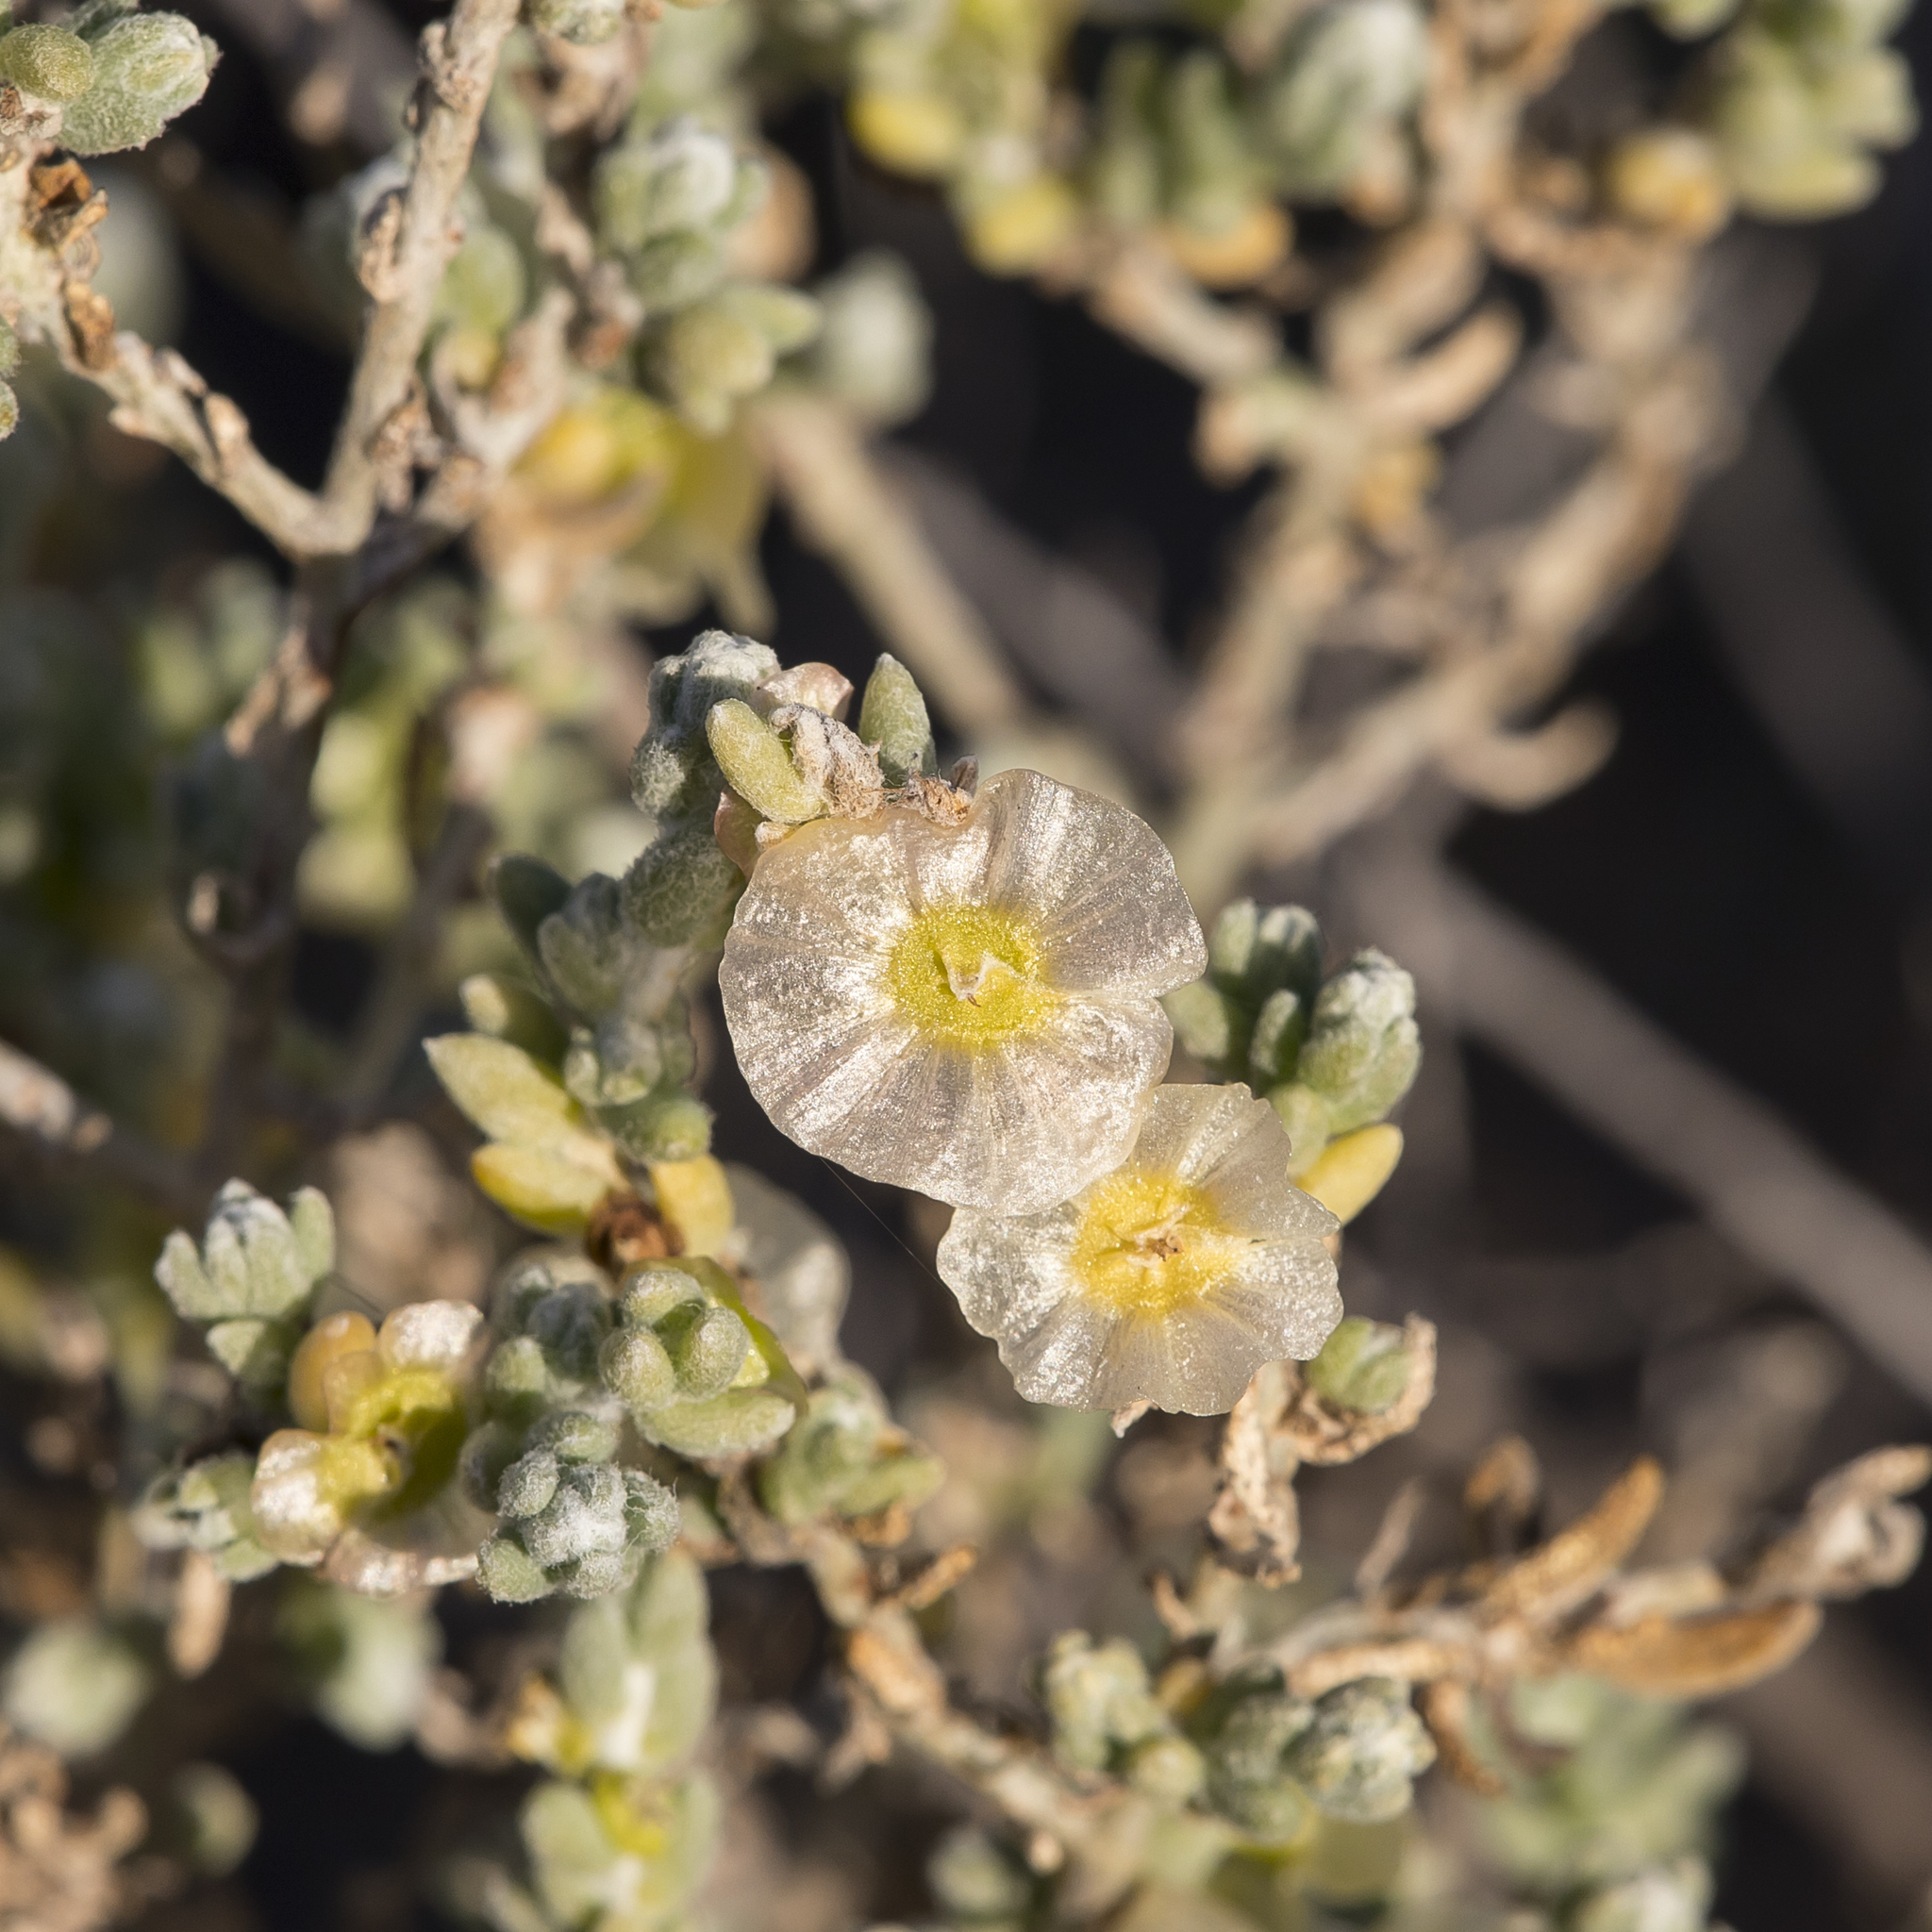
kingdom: Plantae
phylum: Tracheophyta
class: Magnoliopsida
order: Caryophyllales
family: Amaranthaceae
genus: Maireana
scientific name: Maireana appressa
